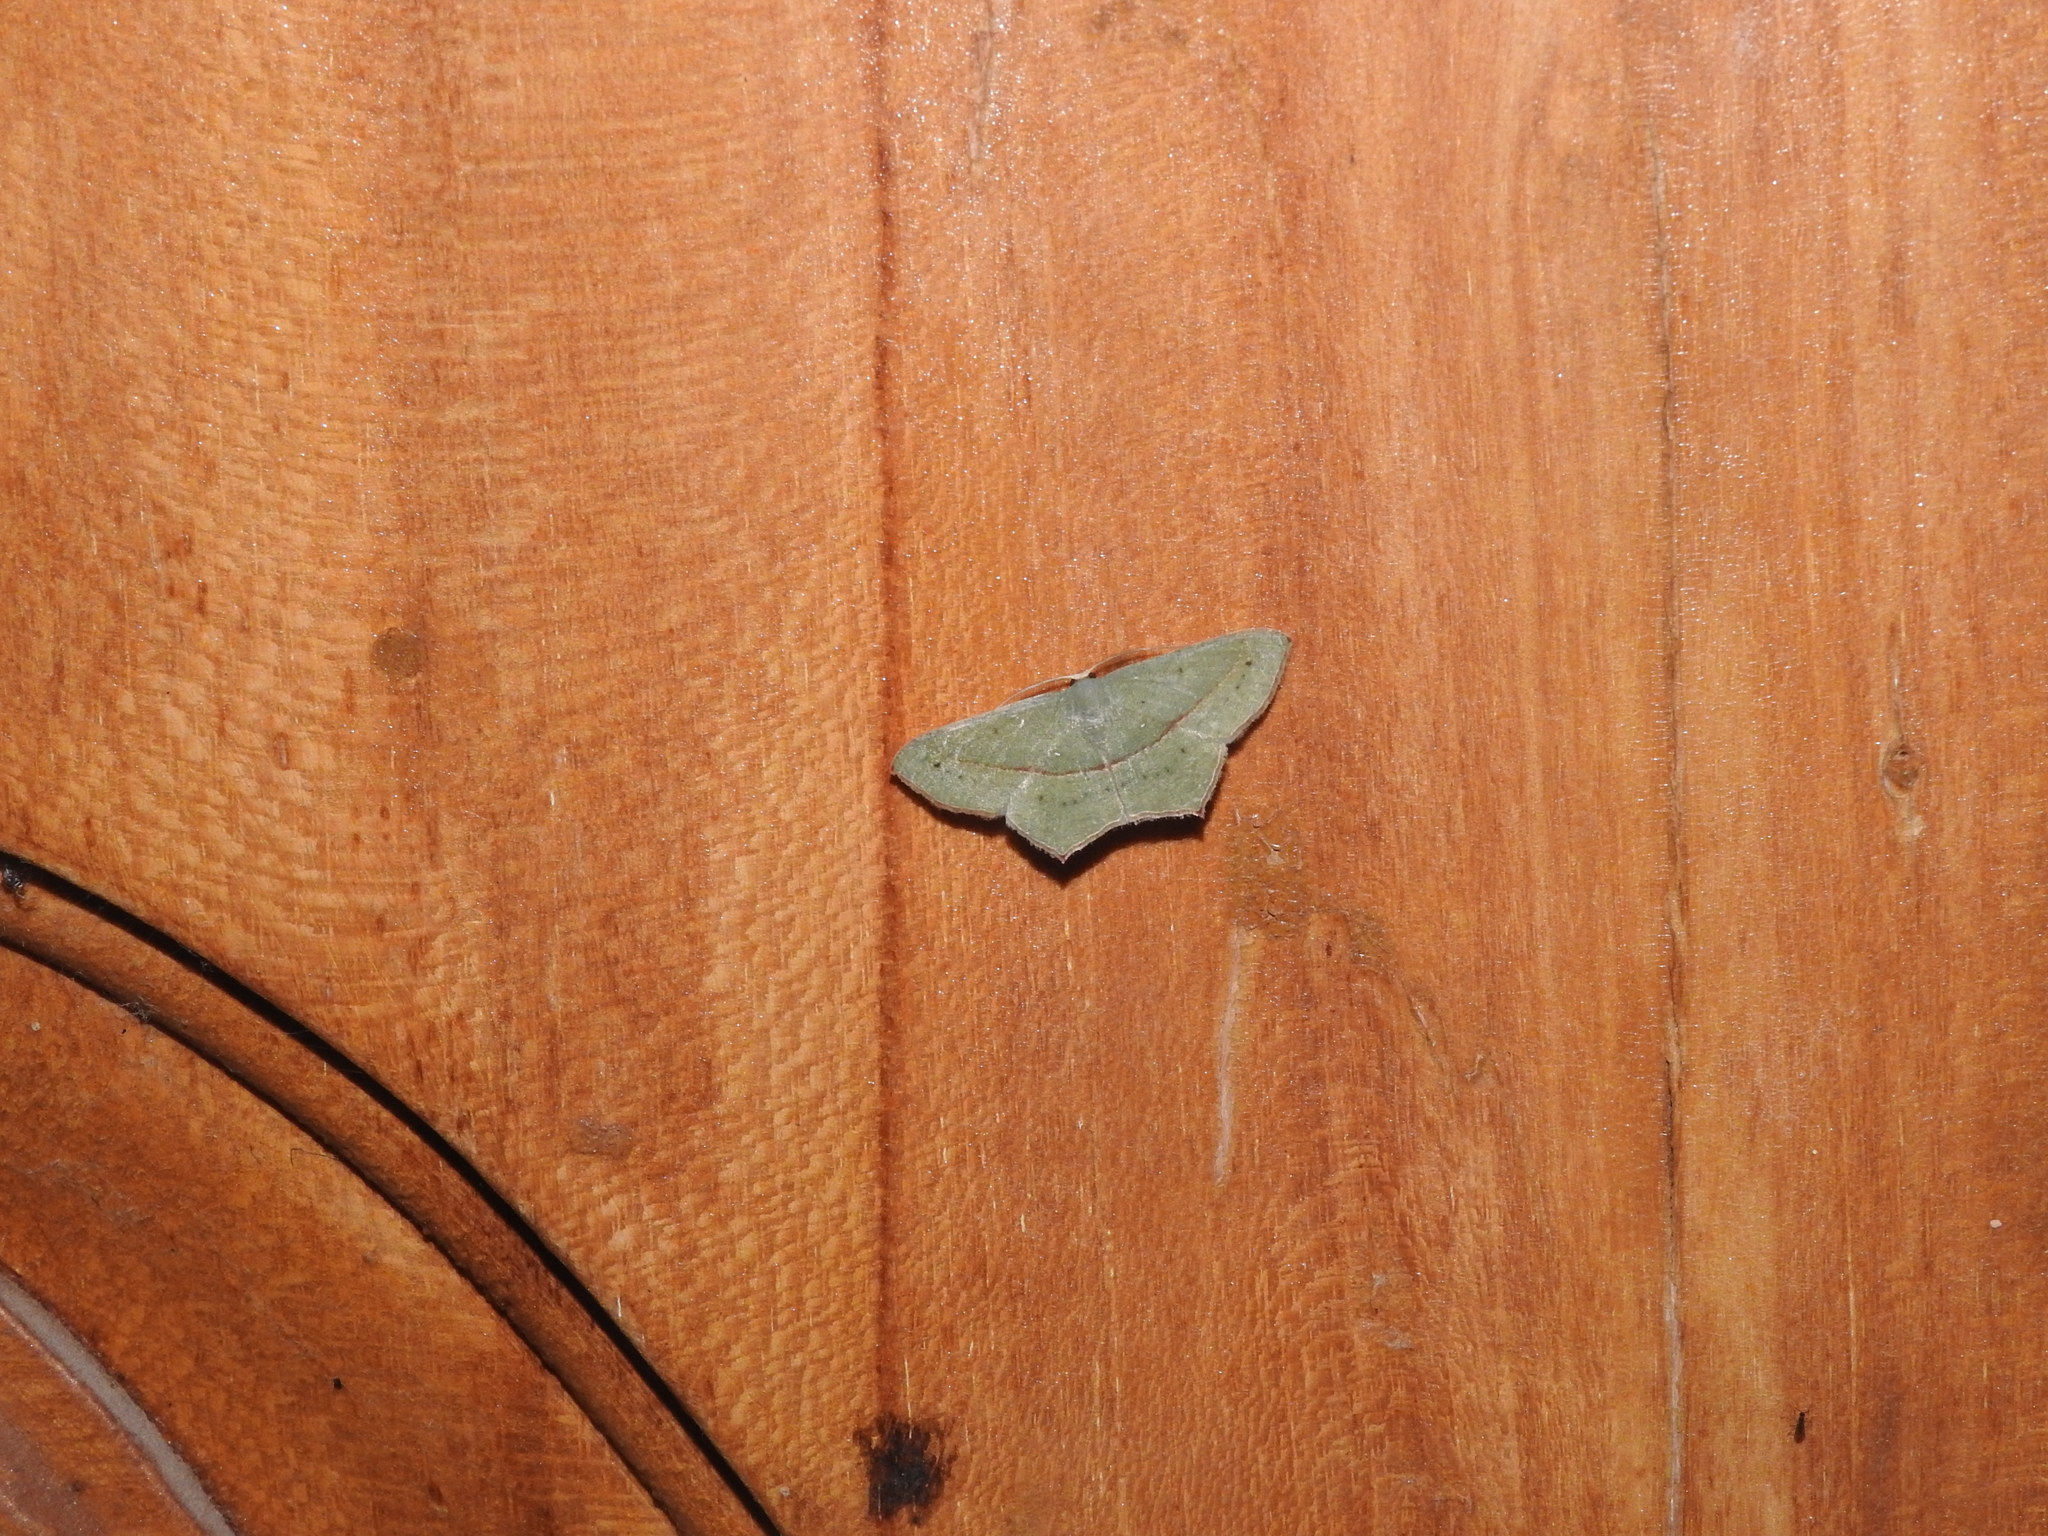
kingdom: Animalia
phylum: Arthropoda
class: Insecta
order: Lepidoptera
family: Geometridae
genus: Traminda
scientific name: Traminda mundissima
